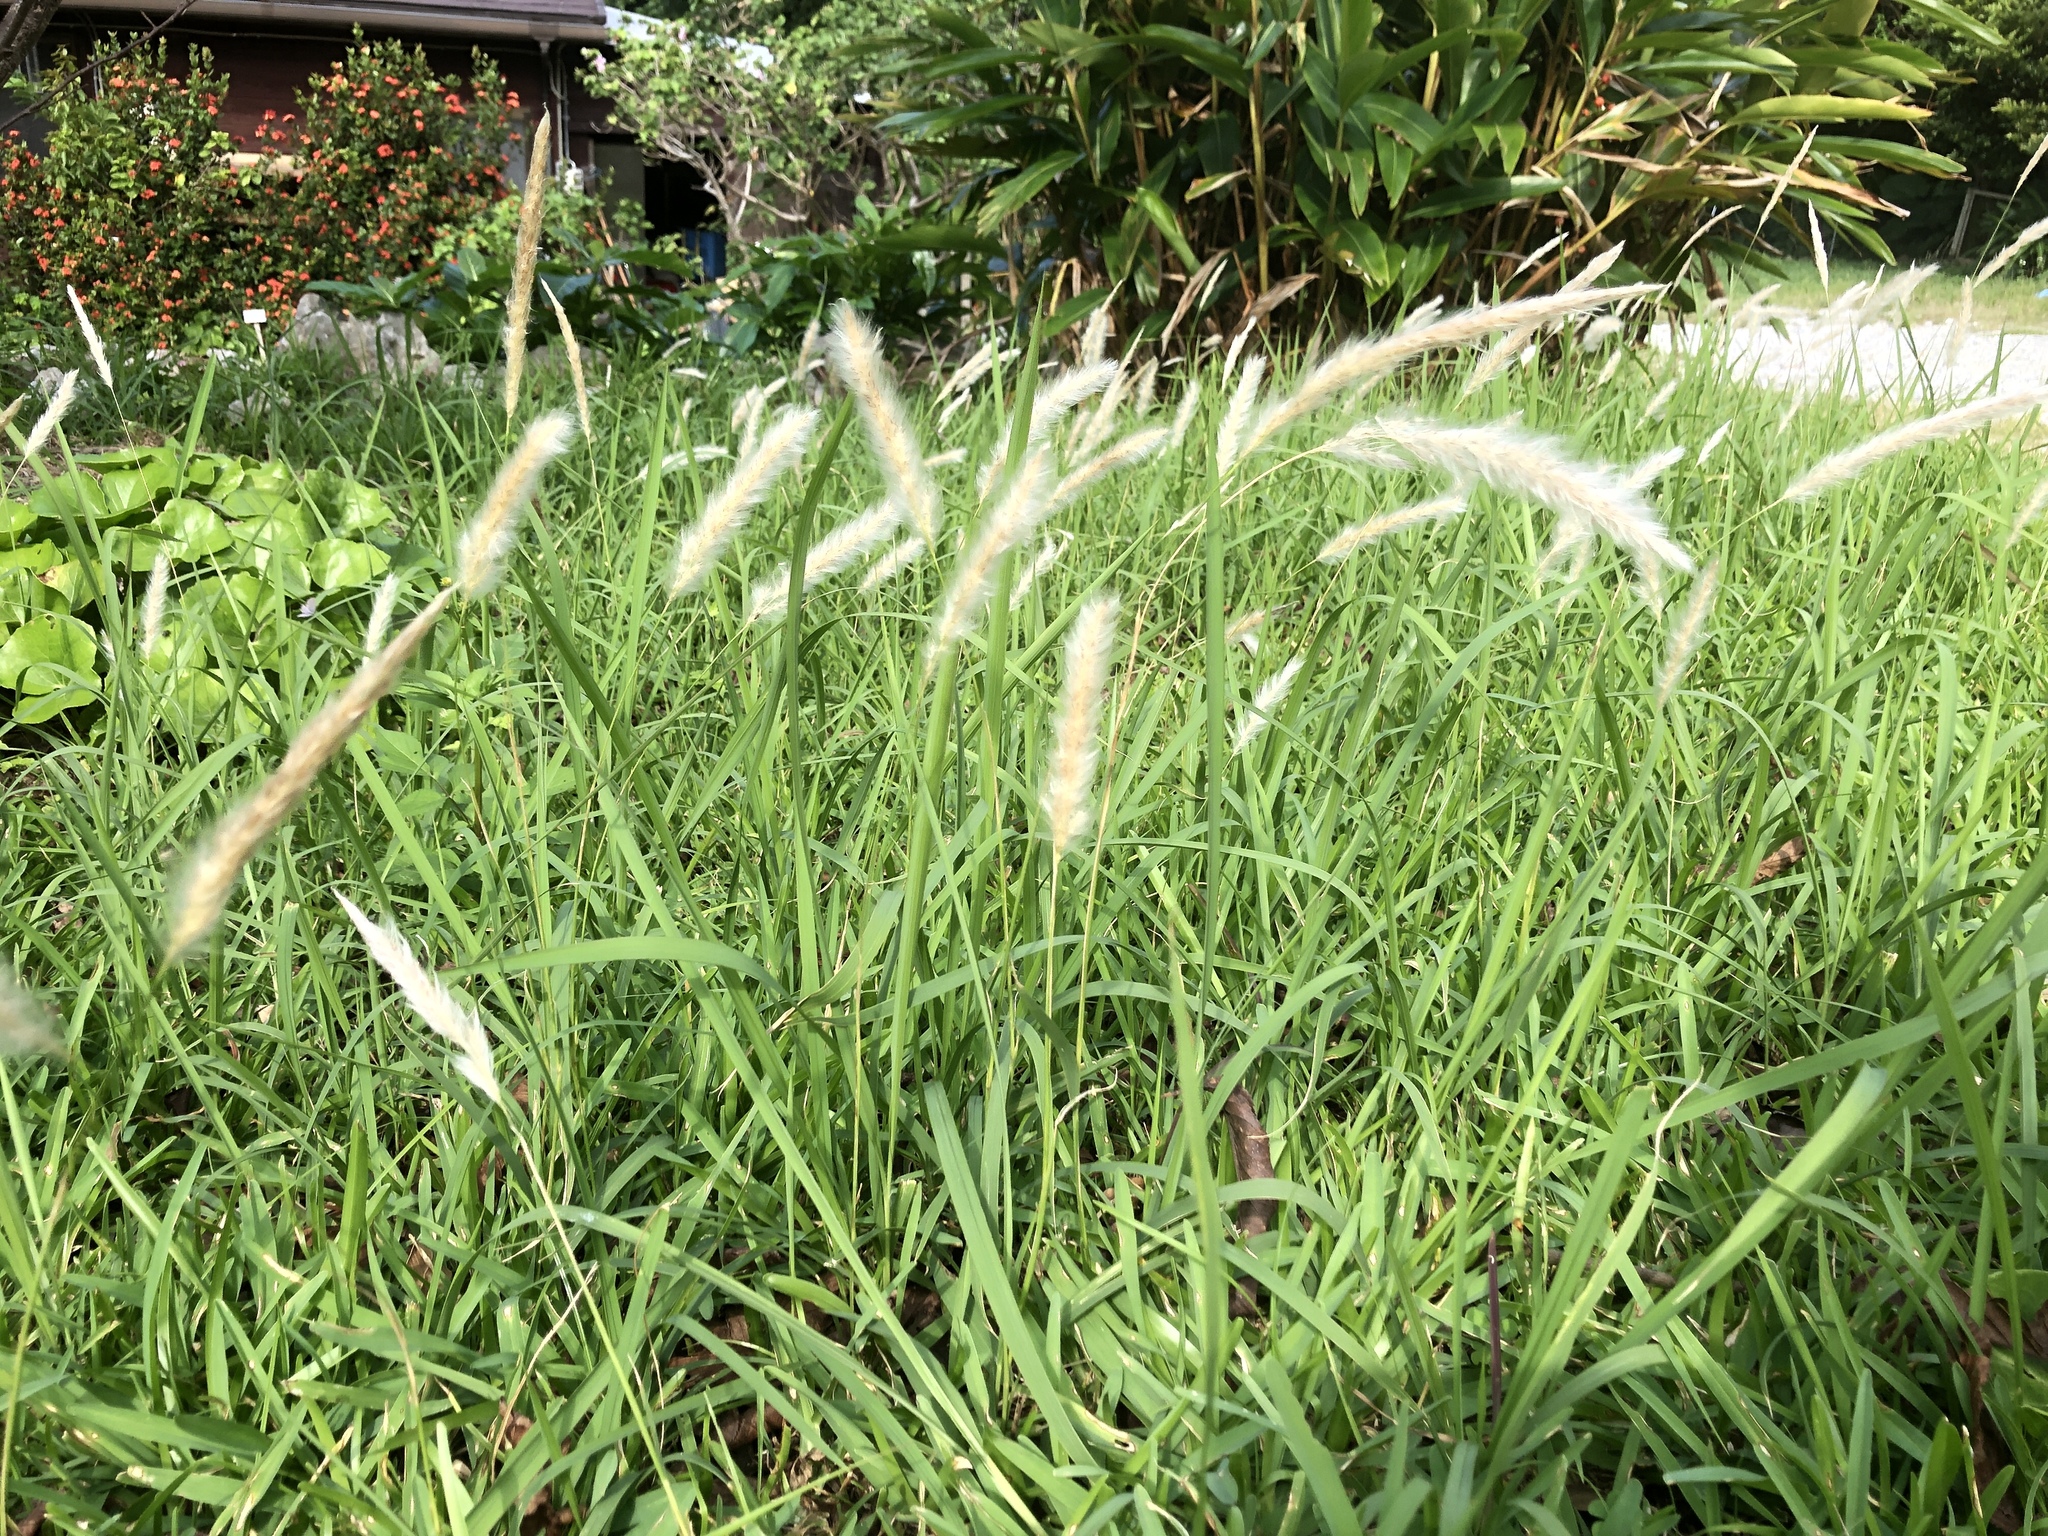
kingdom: Plantae
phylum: Tracheophyta
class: Liliopsida
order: Poales
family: Poaceae
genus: Imperata
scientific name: Imperata cylindrica
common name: Cogongrass
